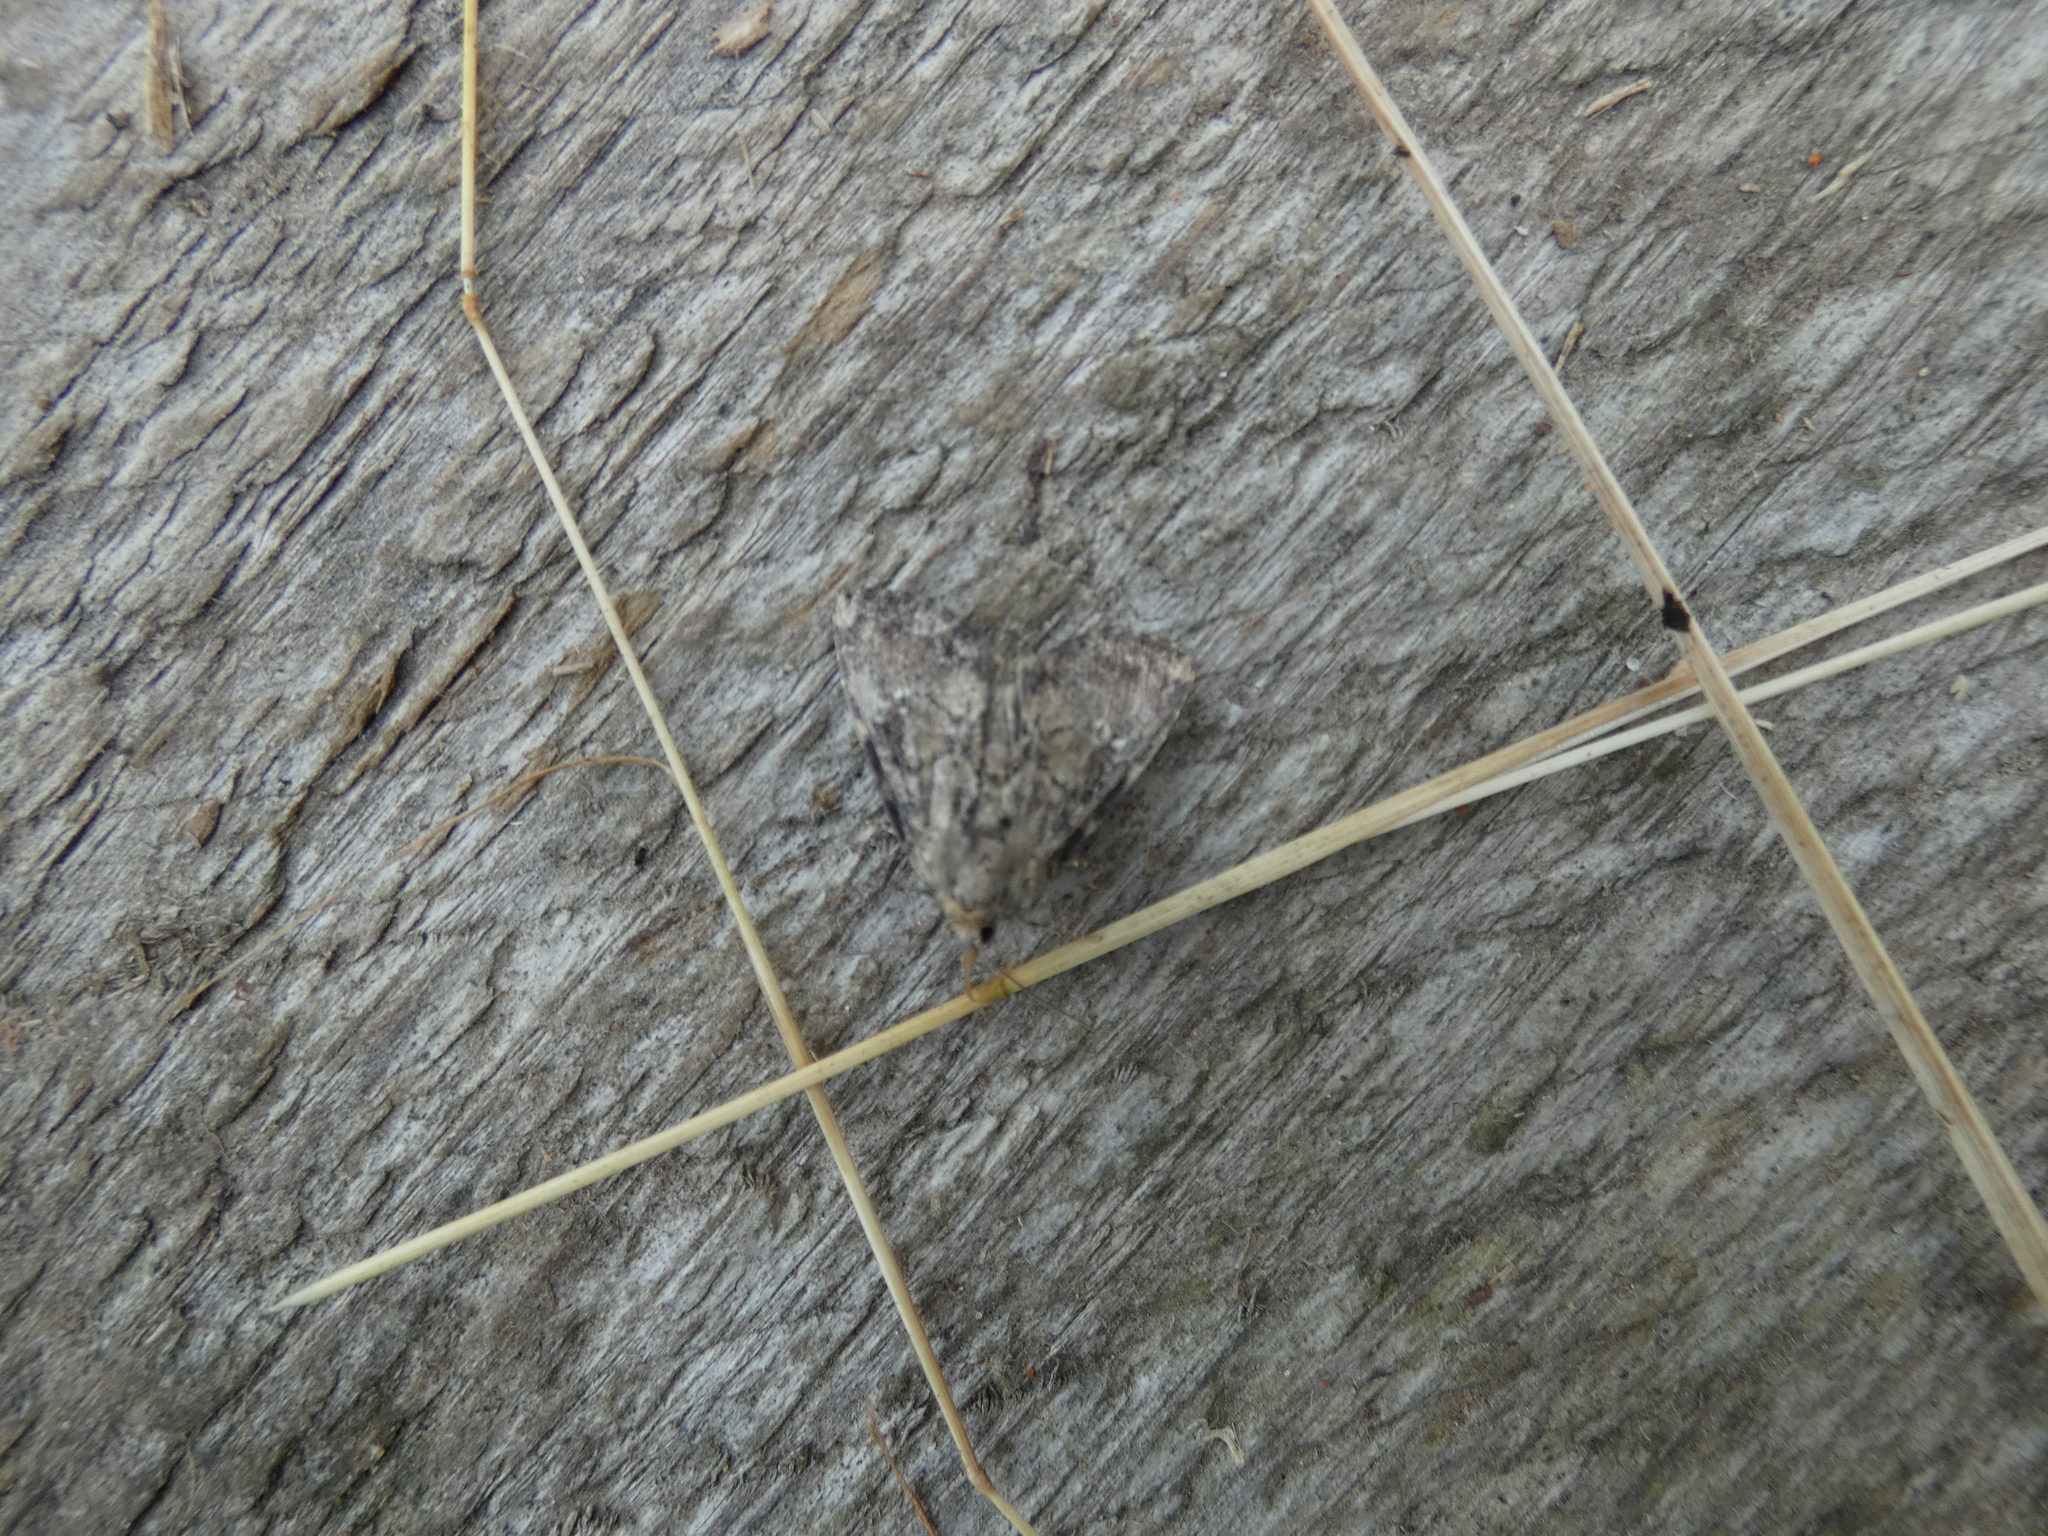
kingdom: Animalia
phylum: Arthropoda
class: Insecta
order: Lepidoptera
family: Noctuidae
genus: Loscopia
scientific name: Loscopia scolopacina
